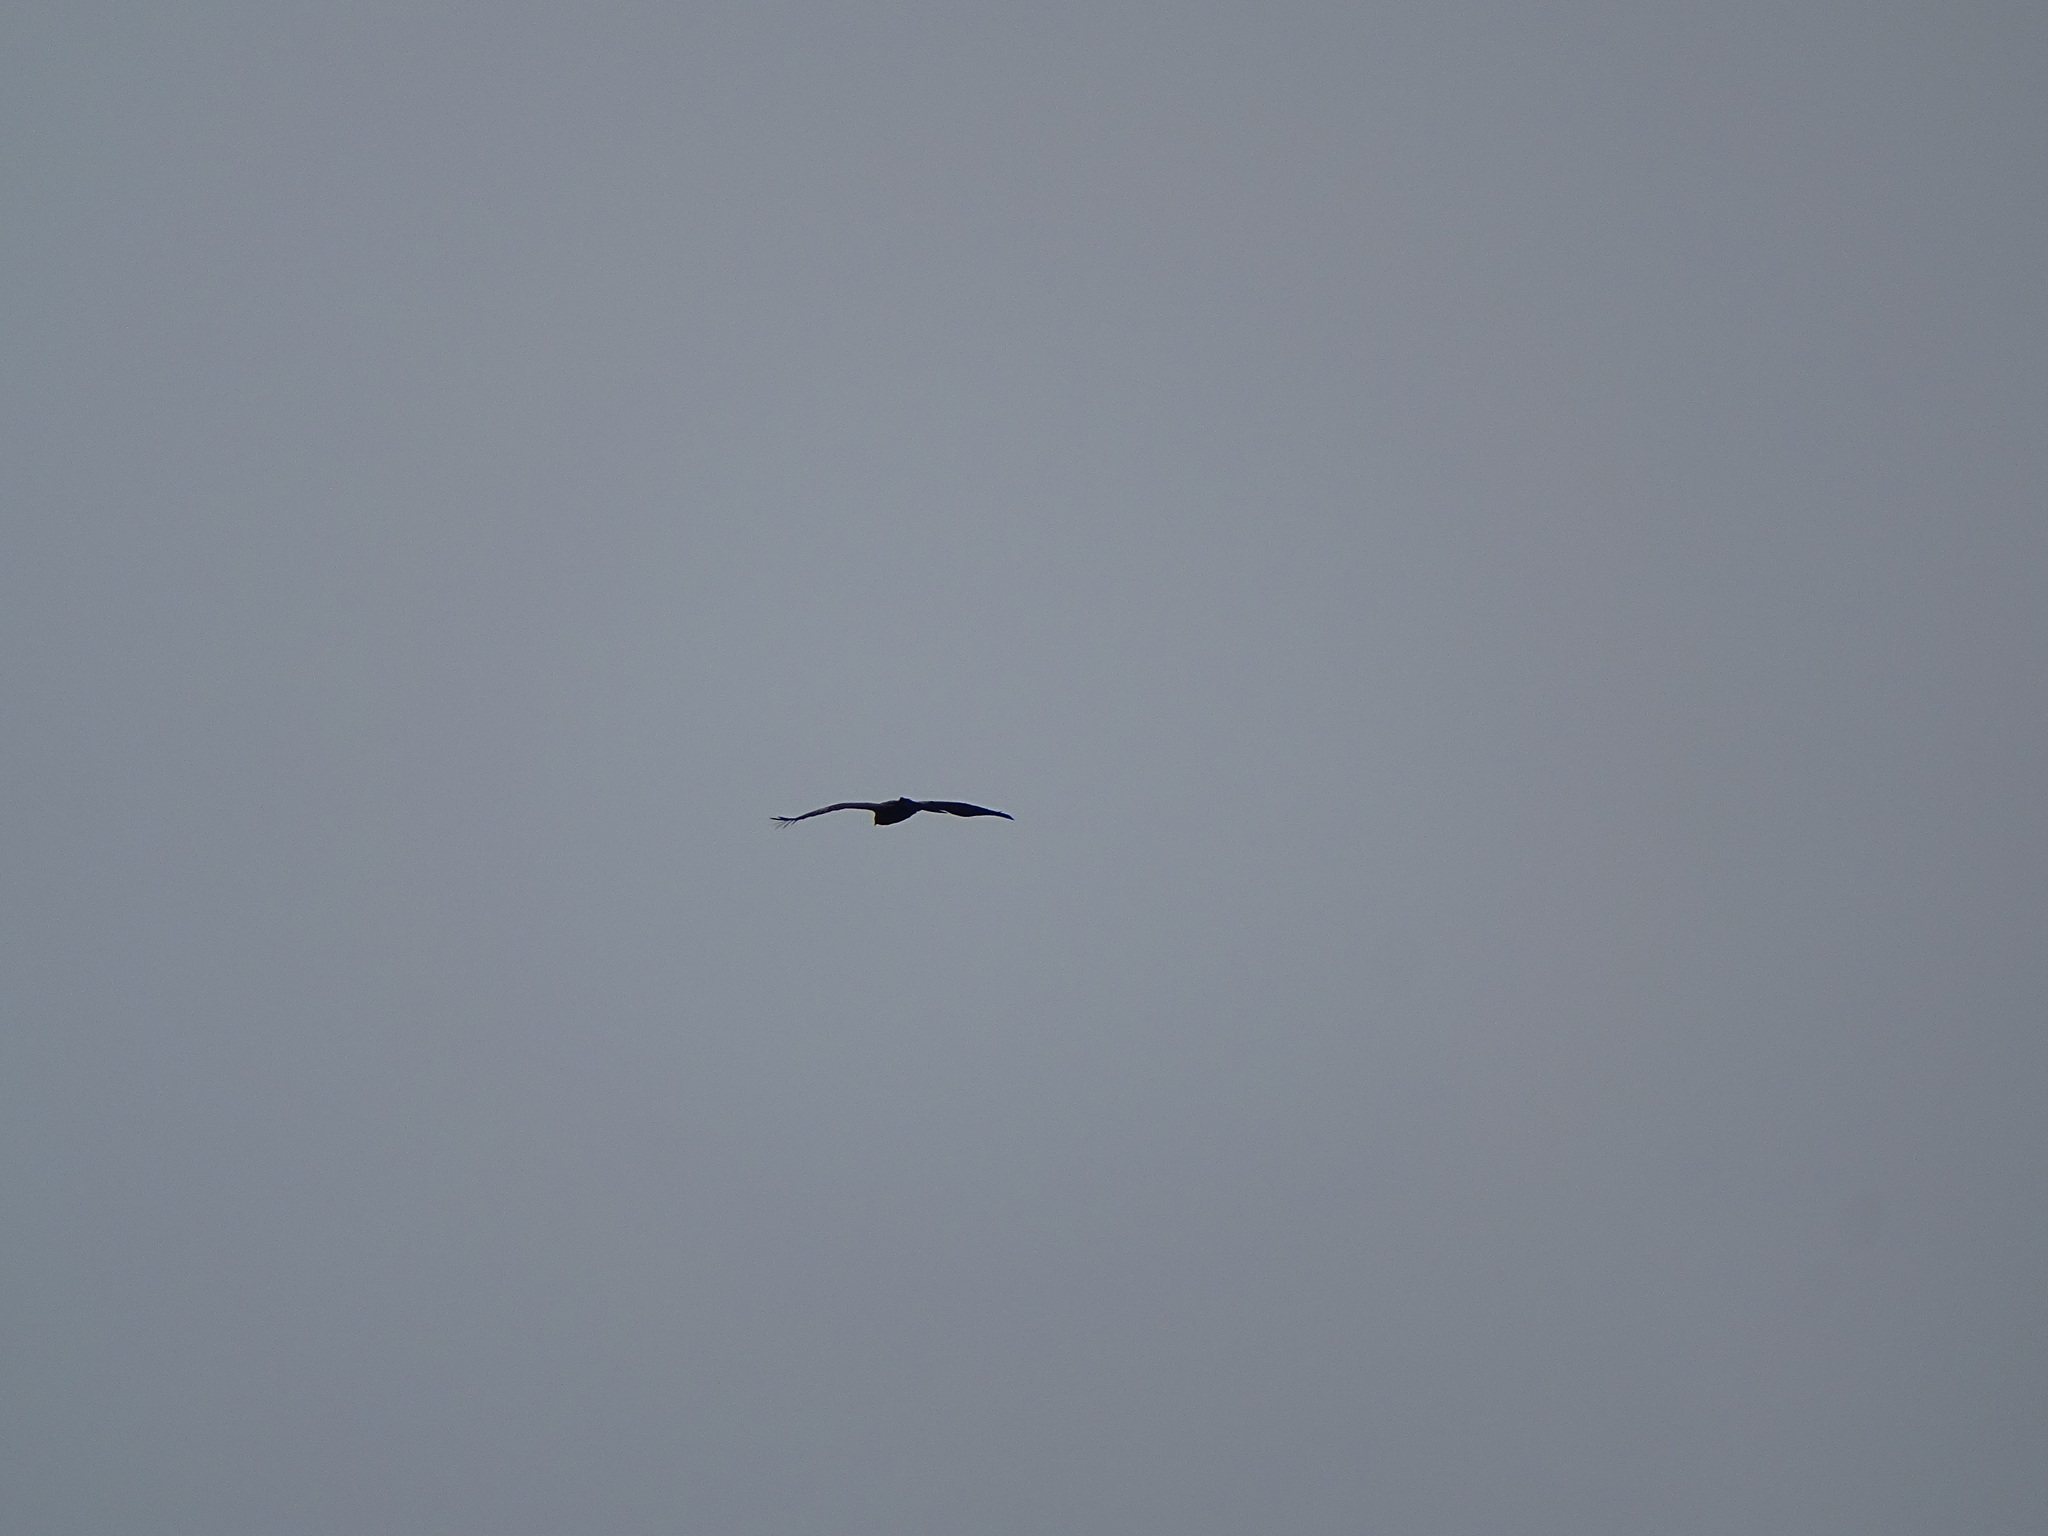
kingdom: Animalia
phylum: Chordata
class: Aves
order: Accipitriformes
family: Accipitridae
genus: Aquila
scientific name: Aquila pomarina
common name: Lesser spotted eagle
